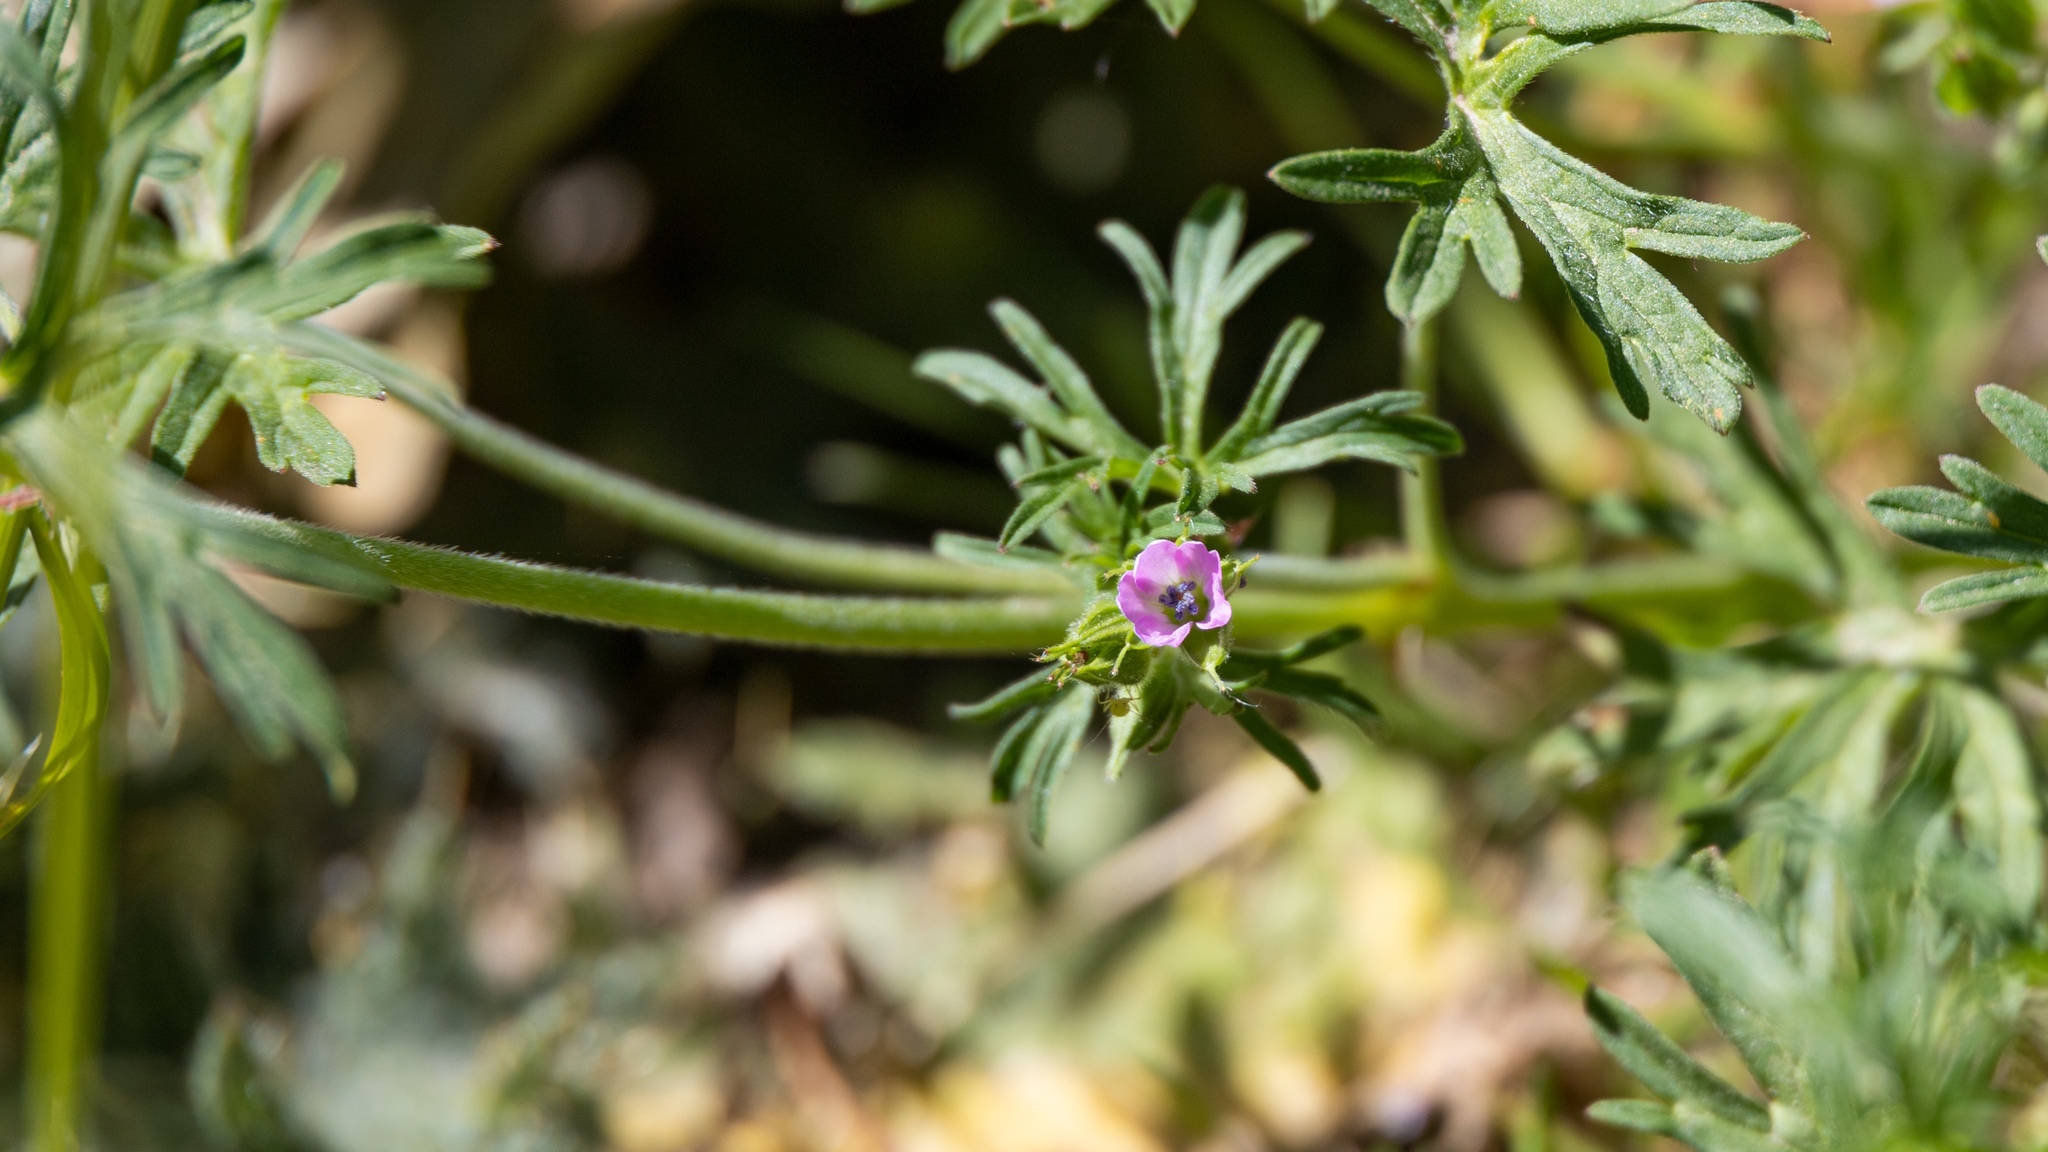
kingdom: Plantae
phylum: Tracheophyta
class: Magnoliopsida
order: Geraniales
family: Geraniaceae
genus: Geranium
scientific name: Geranium dissectum
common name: Cut-leaved crane's-bill
